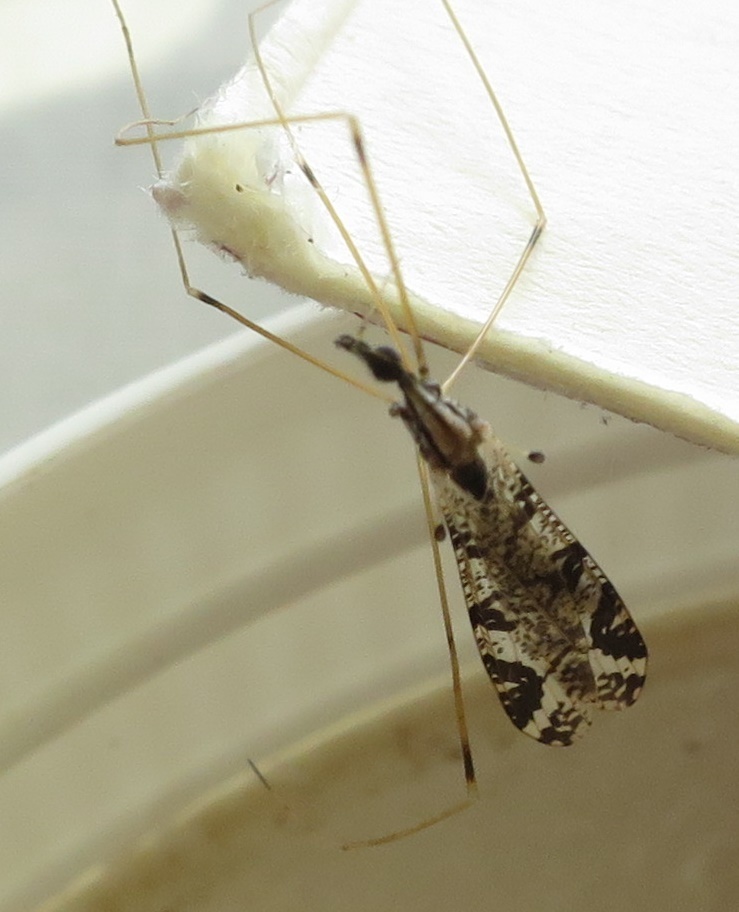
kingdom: Animalia
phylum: Arthropoda
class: Insecta
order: Diptera
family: Limoniidae
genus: Discobola
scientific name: Discobola striata
